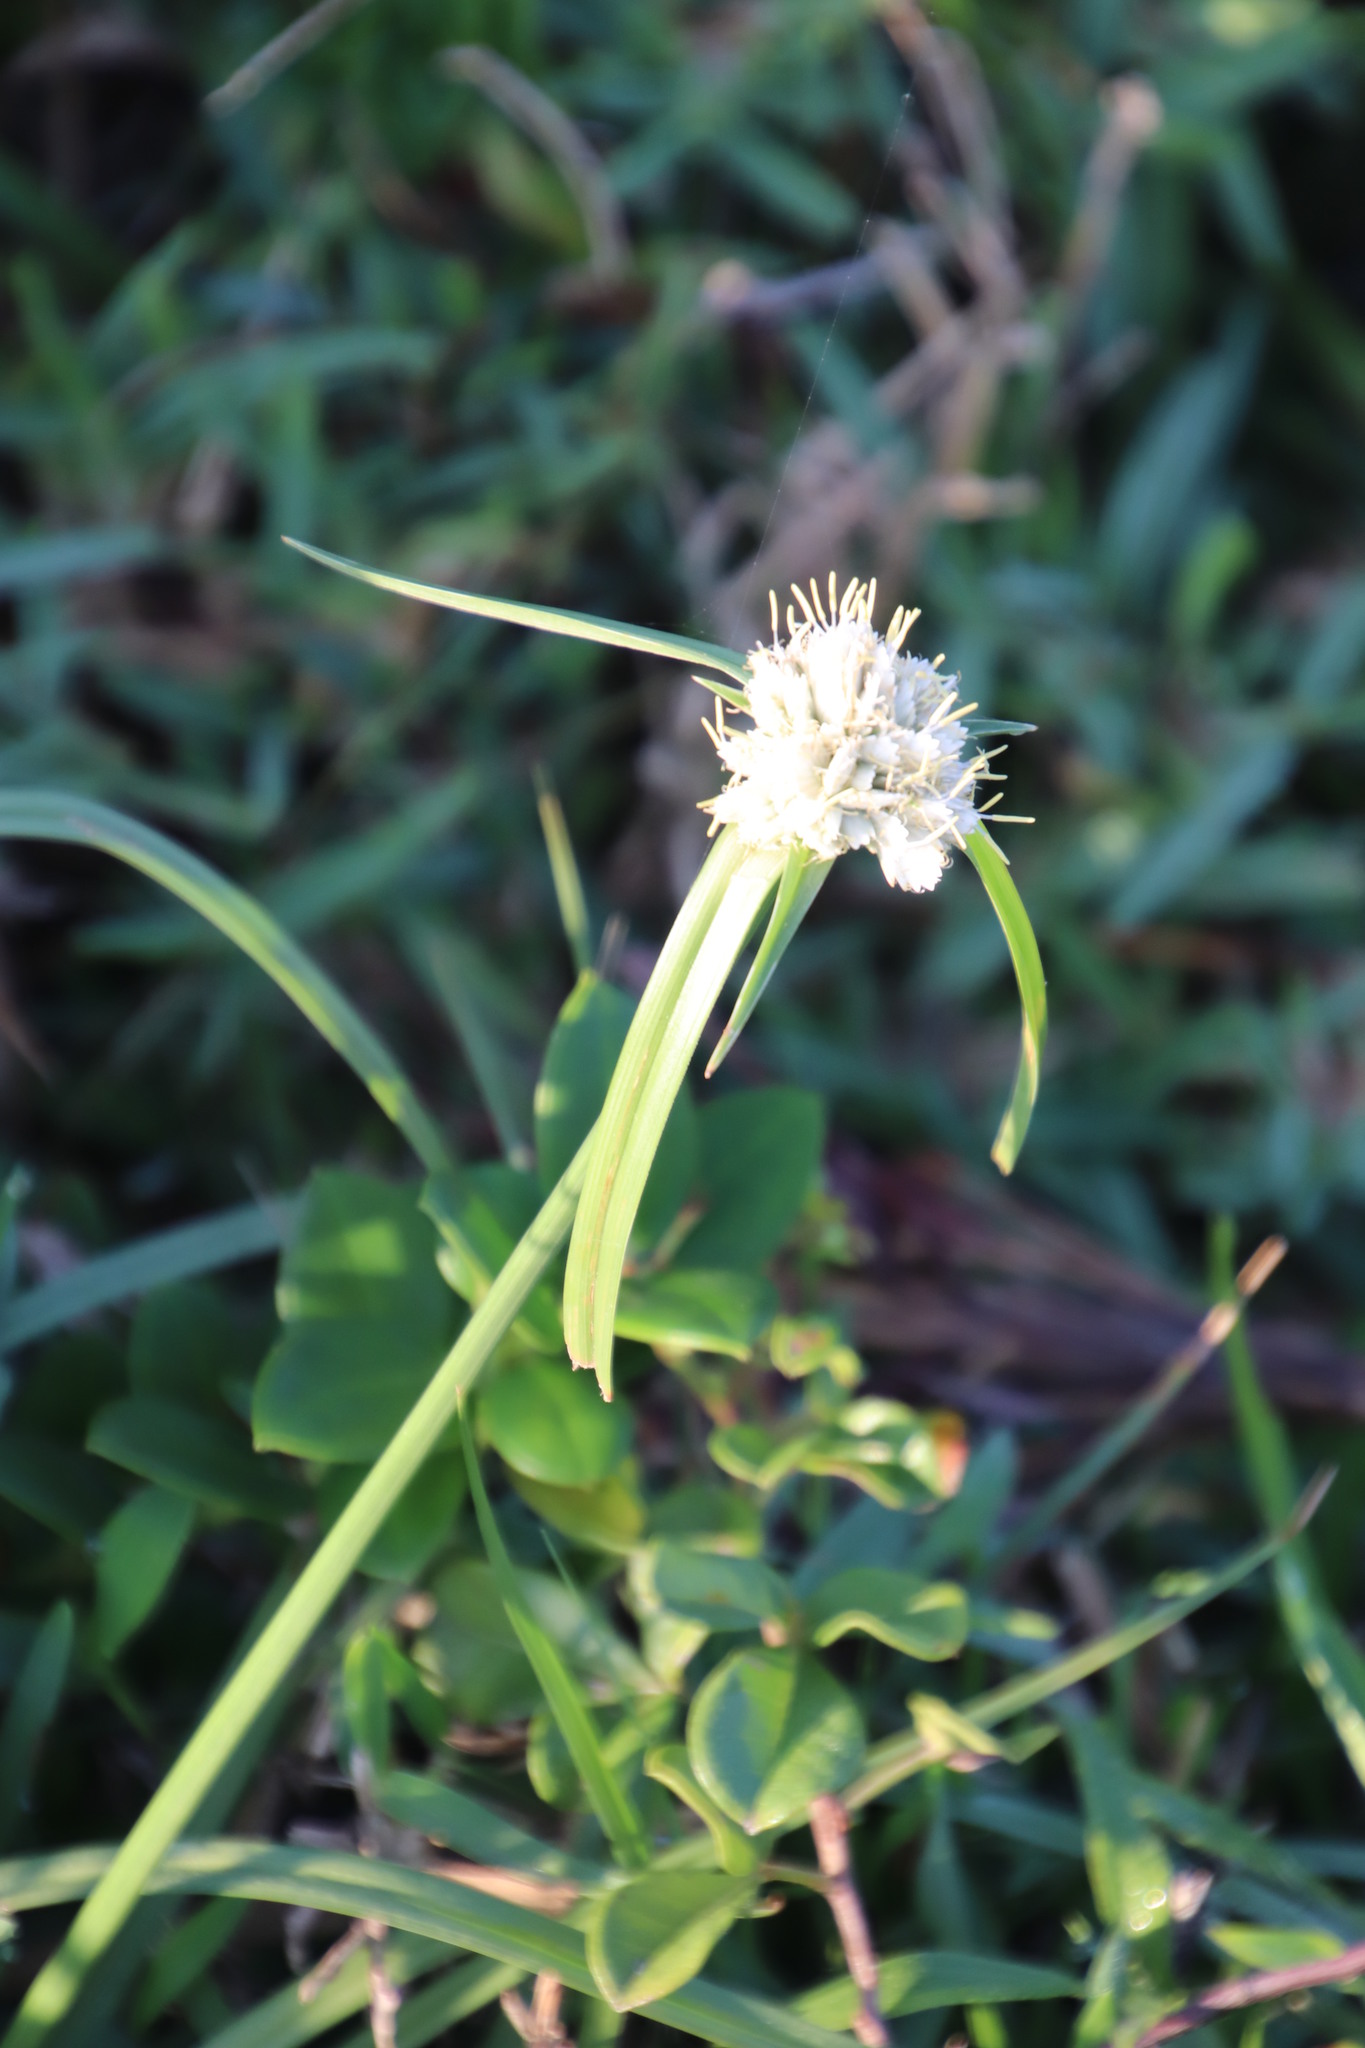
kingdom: Plantae
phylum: Tracheophyta
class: Liliopsida
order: Poales
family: Cyperaceae
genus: Cyperus
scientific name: Cyperus niveus
